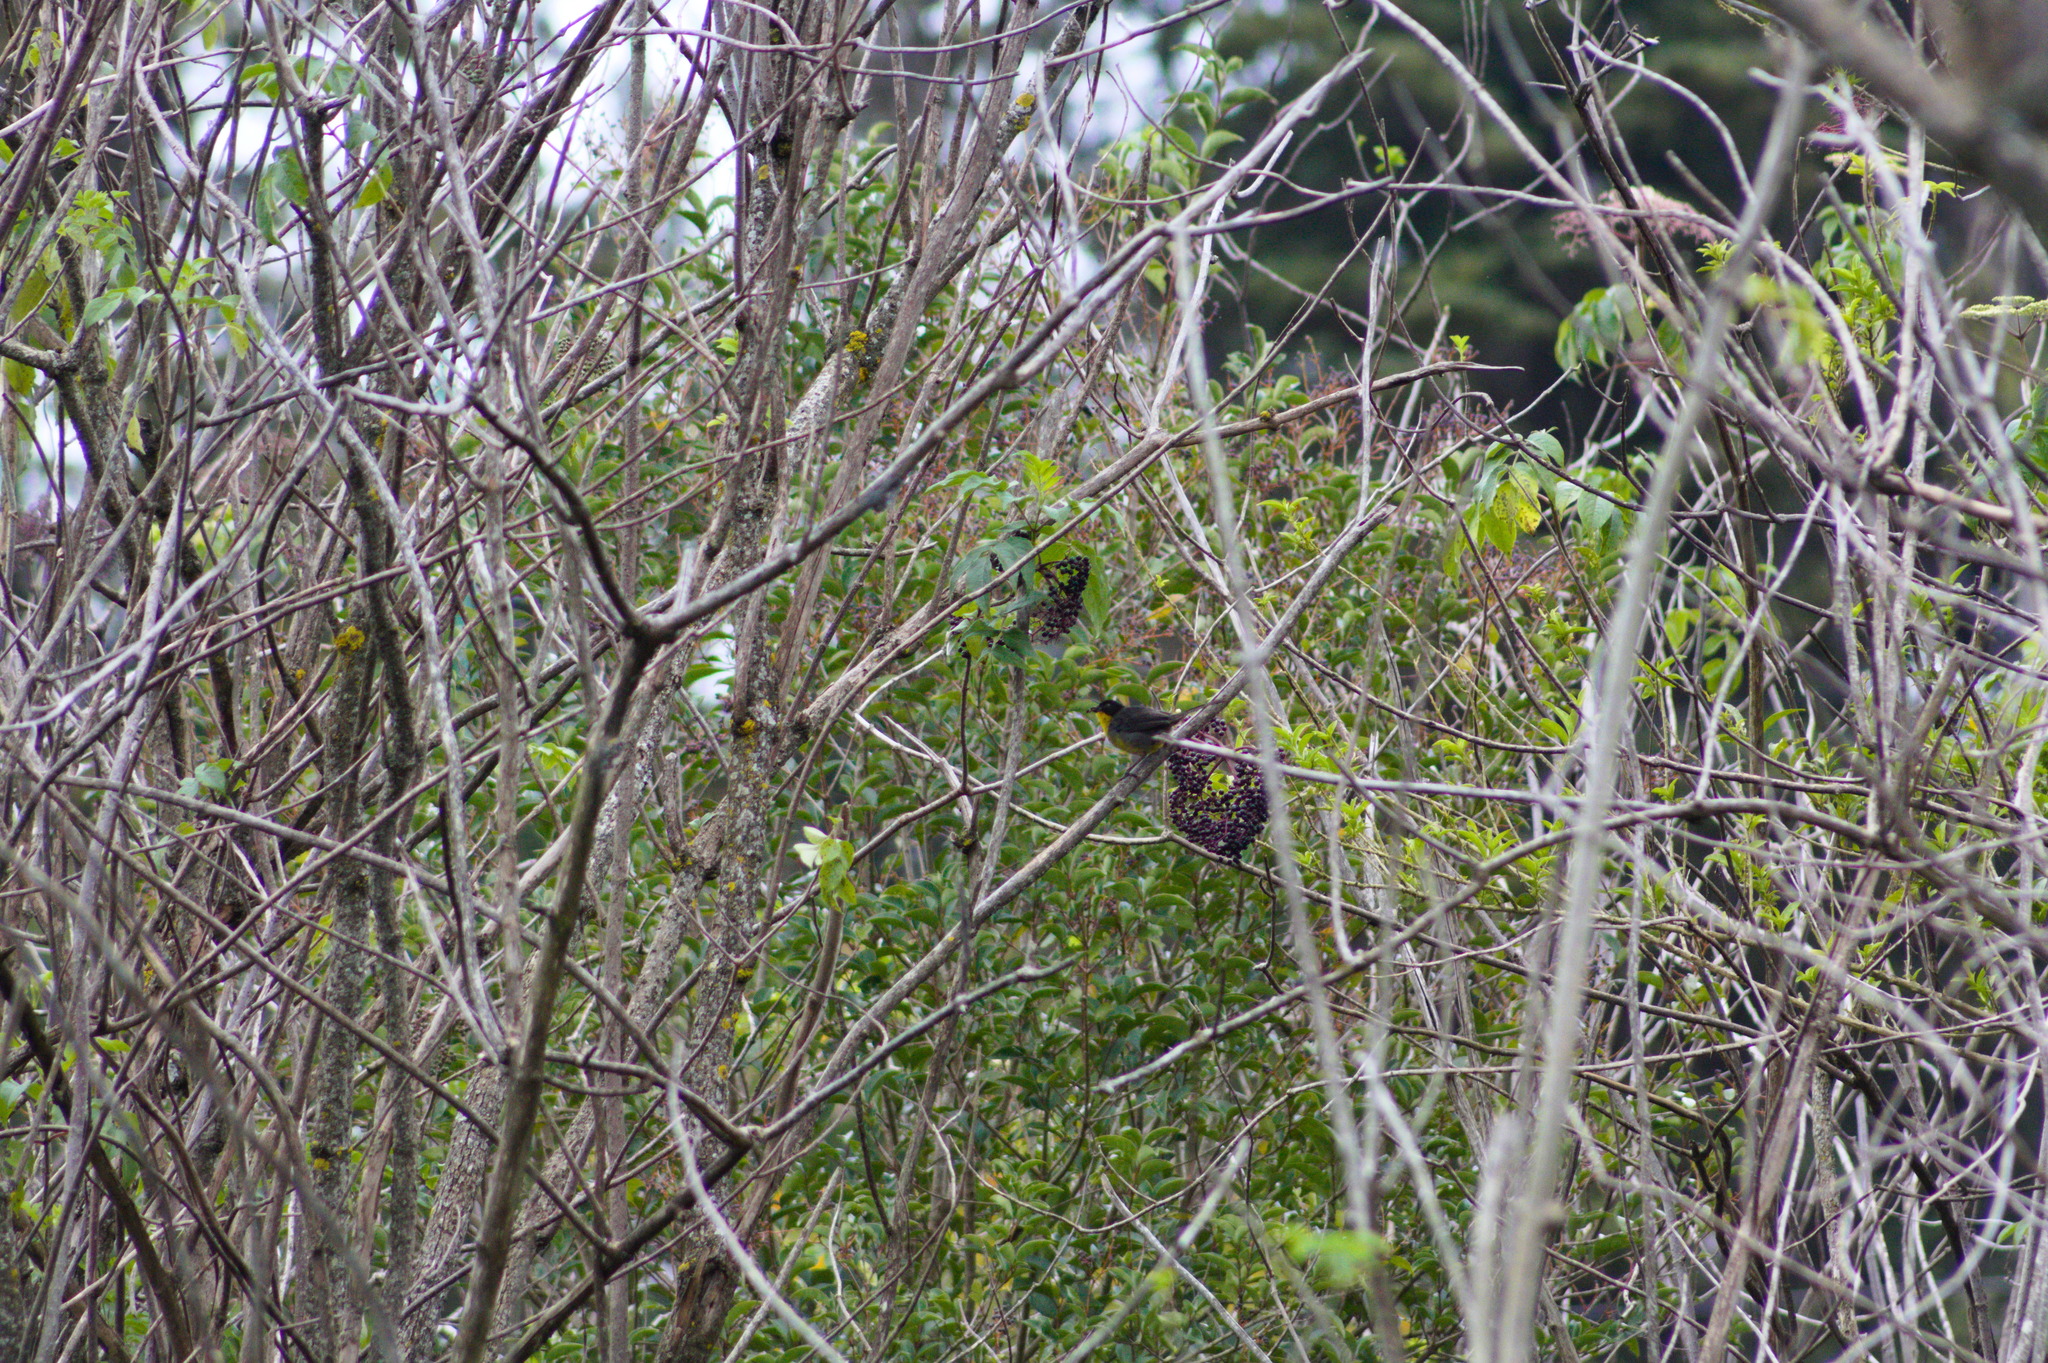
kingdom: Animalia
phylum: Chordata
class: Aves
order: Passeriformes
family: Passerellidae
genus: Atlapetes
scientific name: Atlapetes albinucha
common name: White-naped brush-finch
